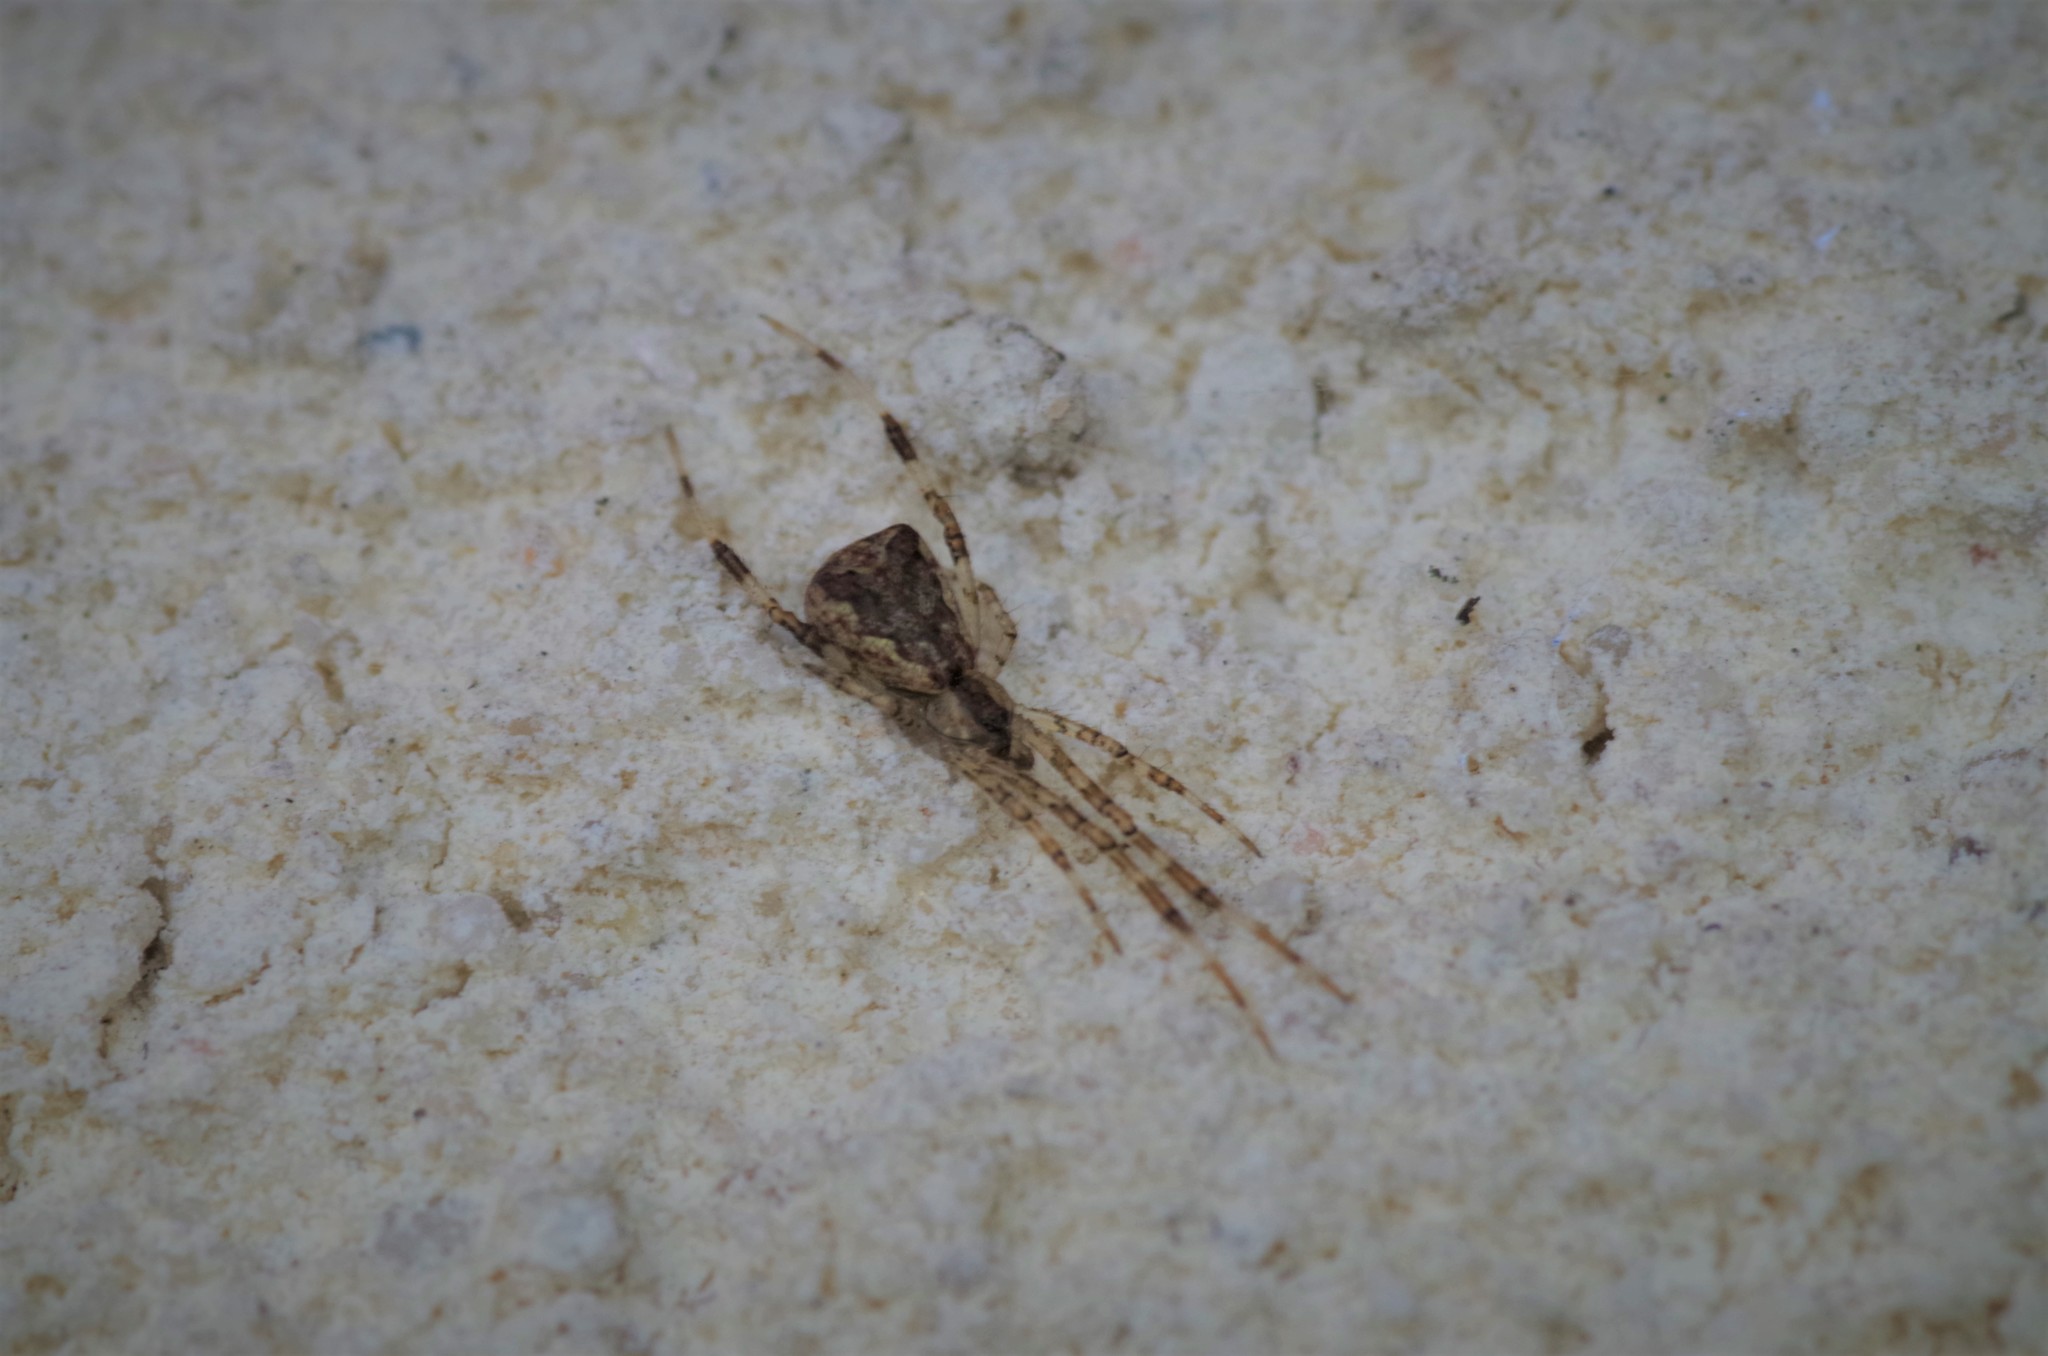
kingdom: Animalia
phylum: Arthropoda
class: Arachnida
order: Araneae
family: Theridiidae
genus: Episinus
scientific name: Episinus maculipes
